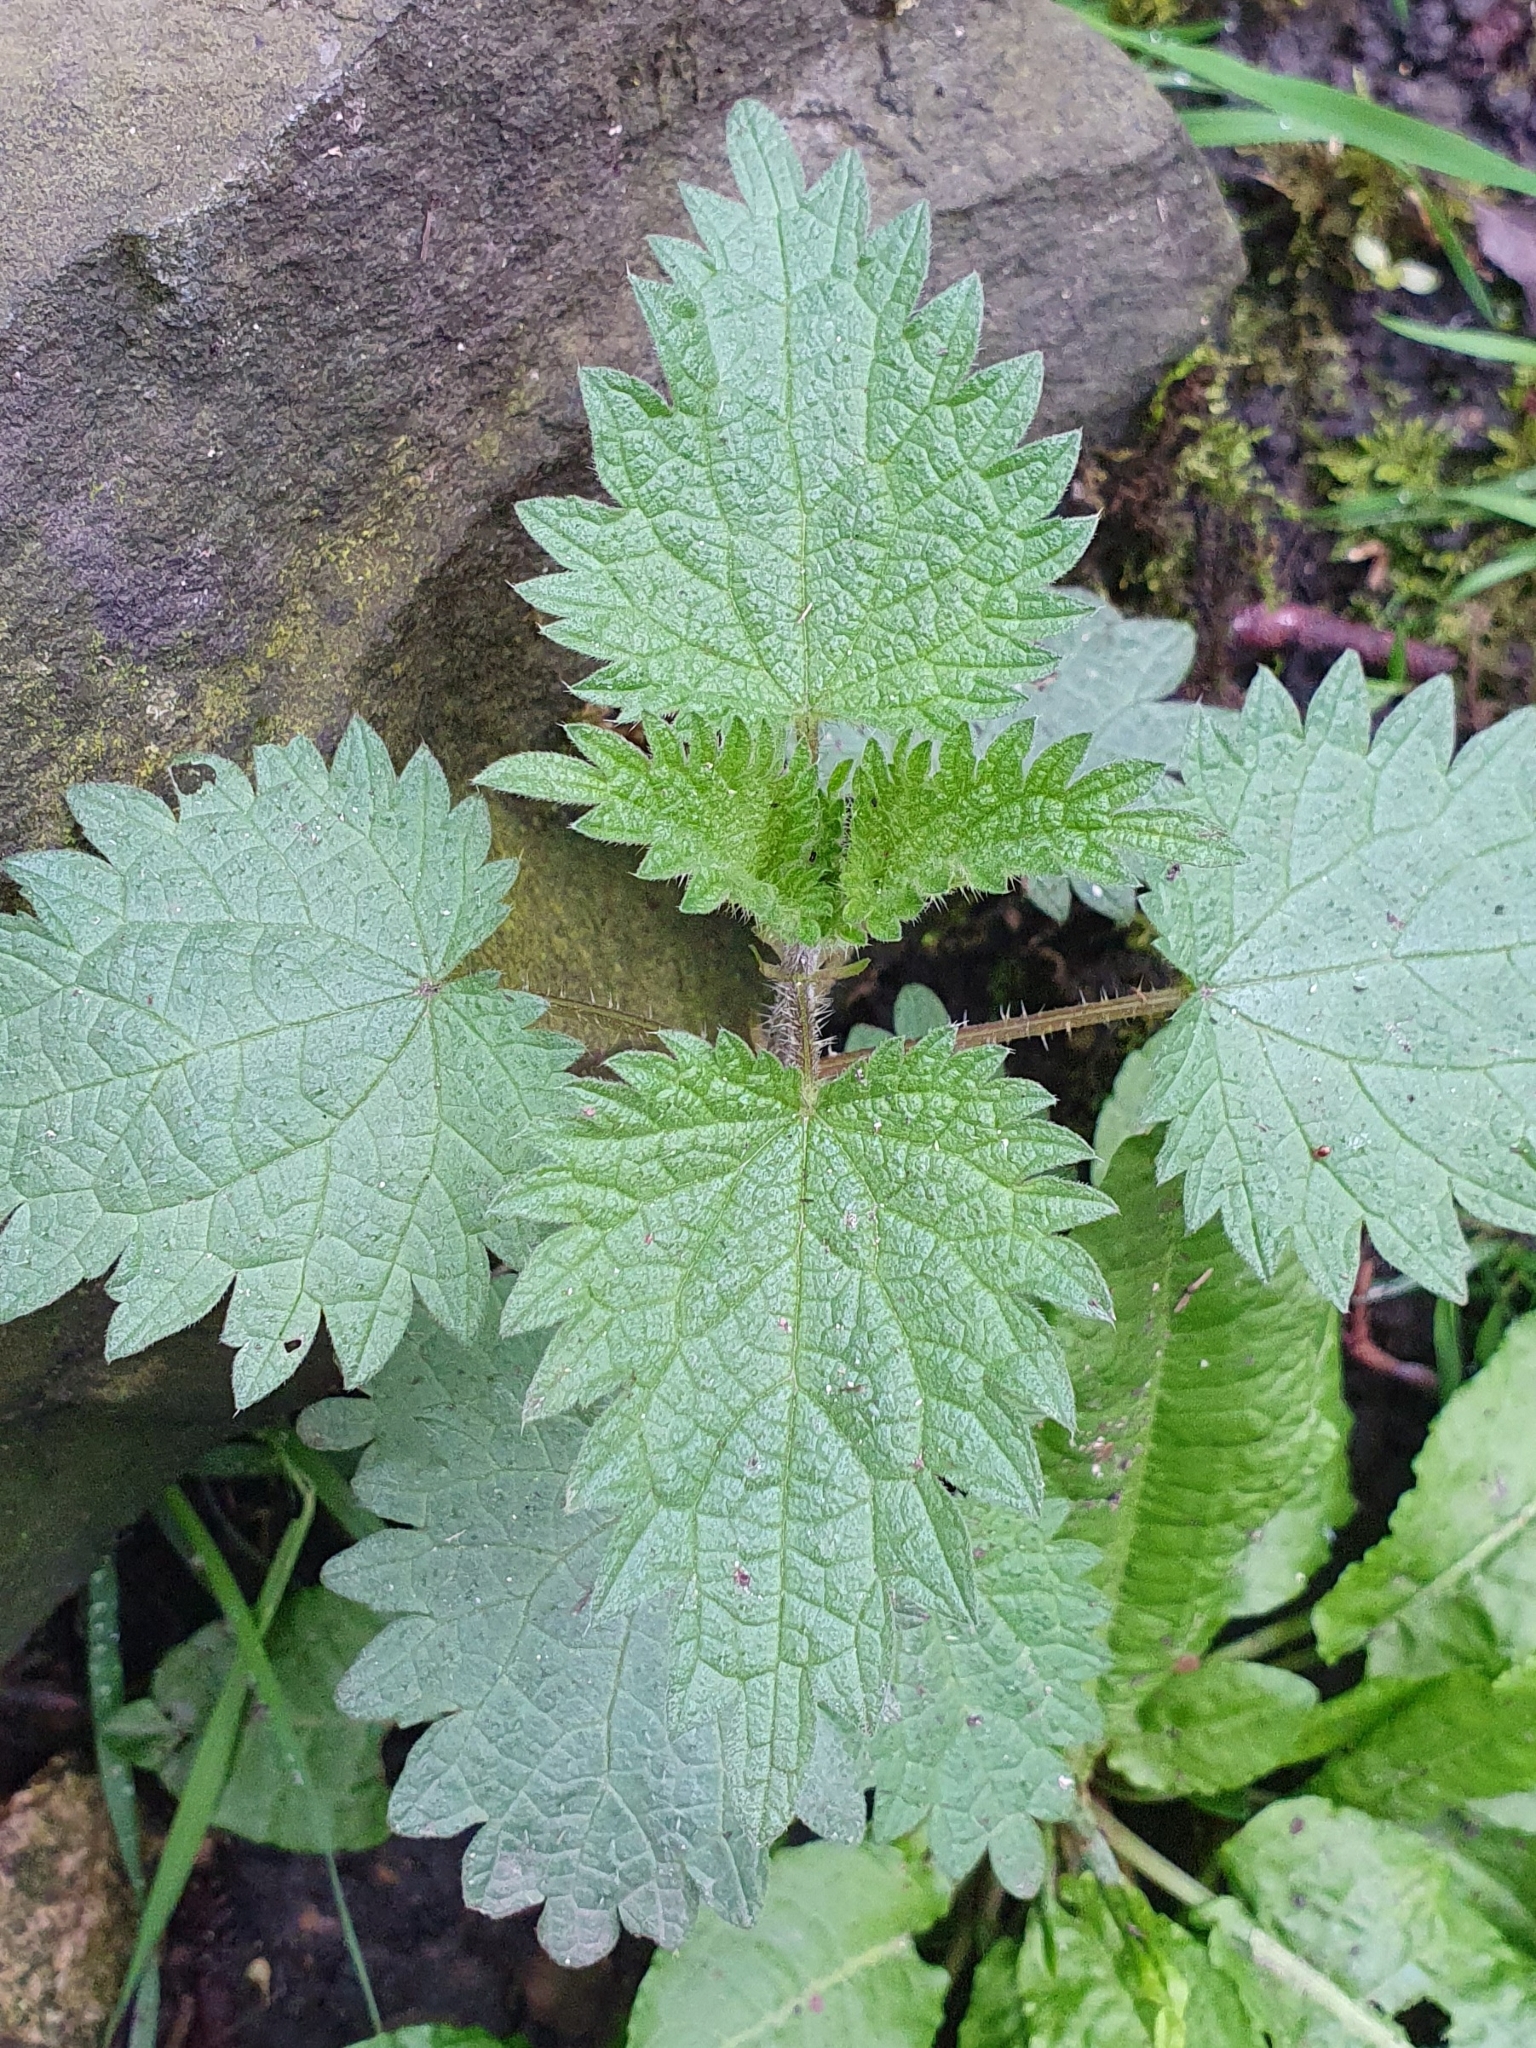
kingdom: Plantae
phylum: Tracheophyta
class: Magnoliopsida
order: Rosales
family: Urticaceae
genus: Urtica
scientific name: Urtica dioica
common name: Common nettle
